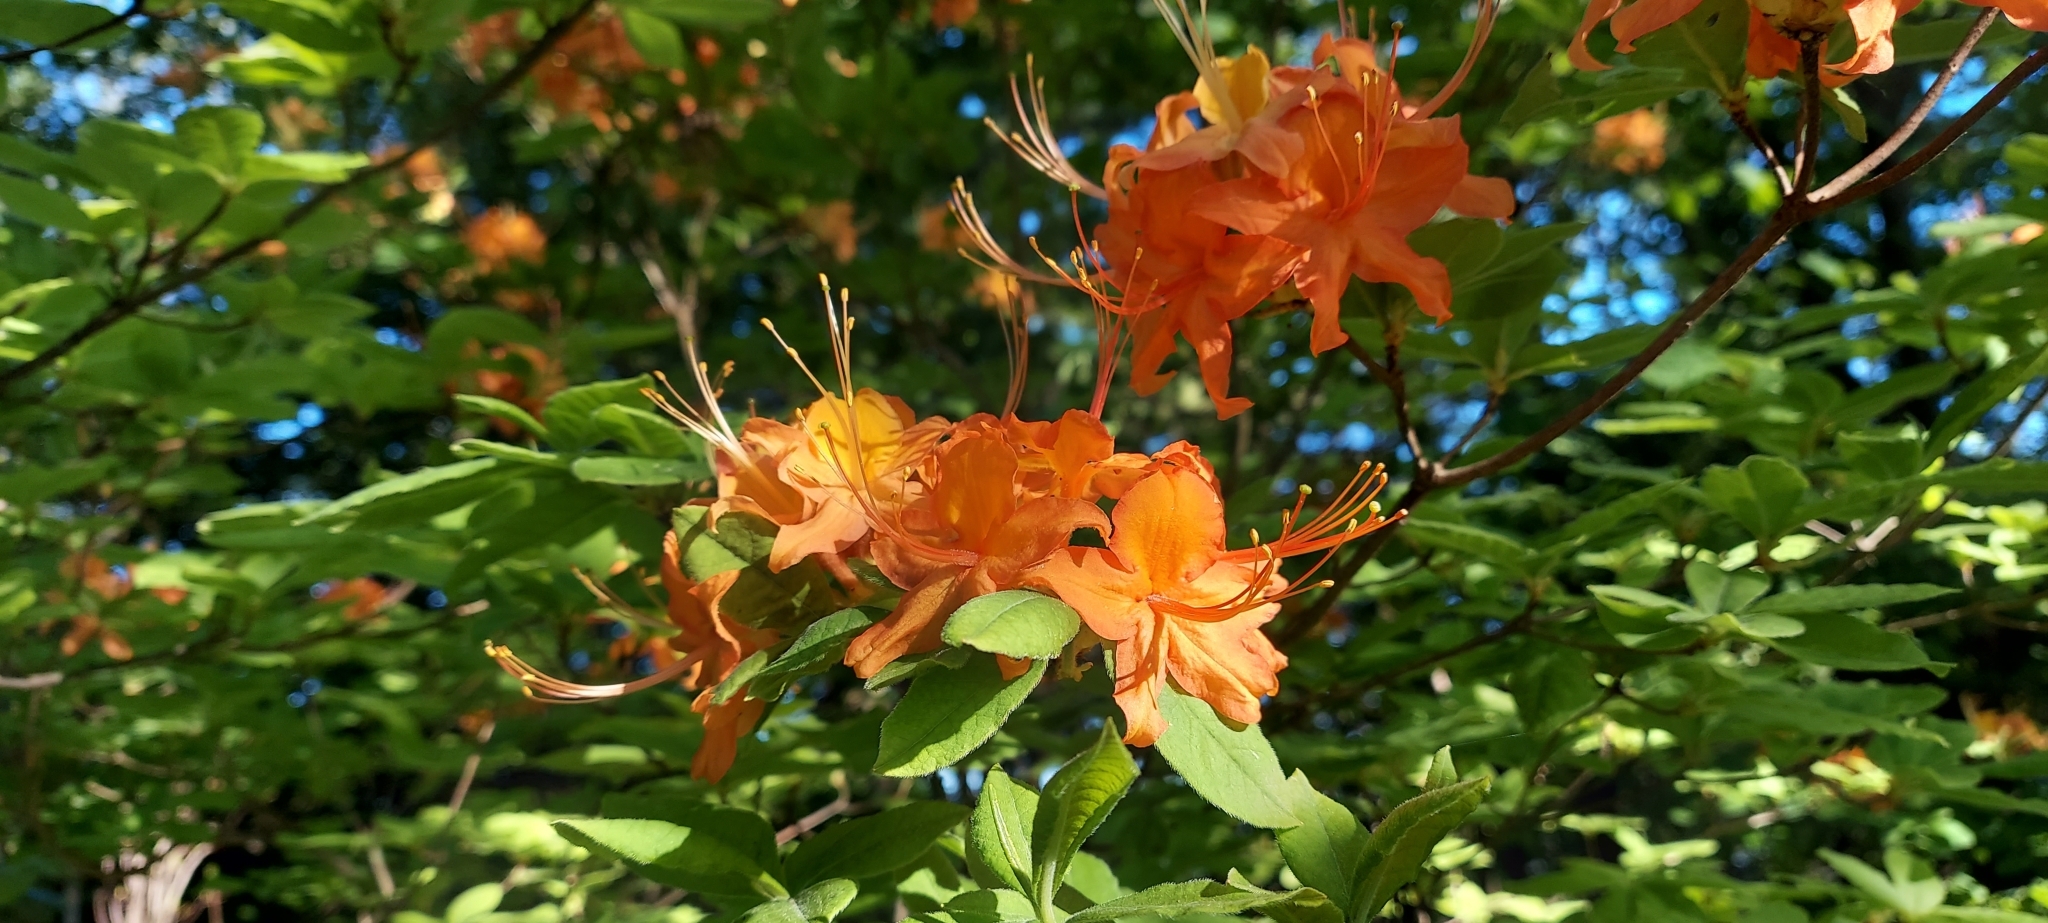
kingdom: Plantae
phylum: Tracheophyta
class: Magnoliopsida
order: Ericales
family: Ericaceae
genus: Rhododendron
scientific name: Rhododendron calendulaceum
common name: Flame azalea
